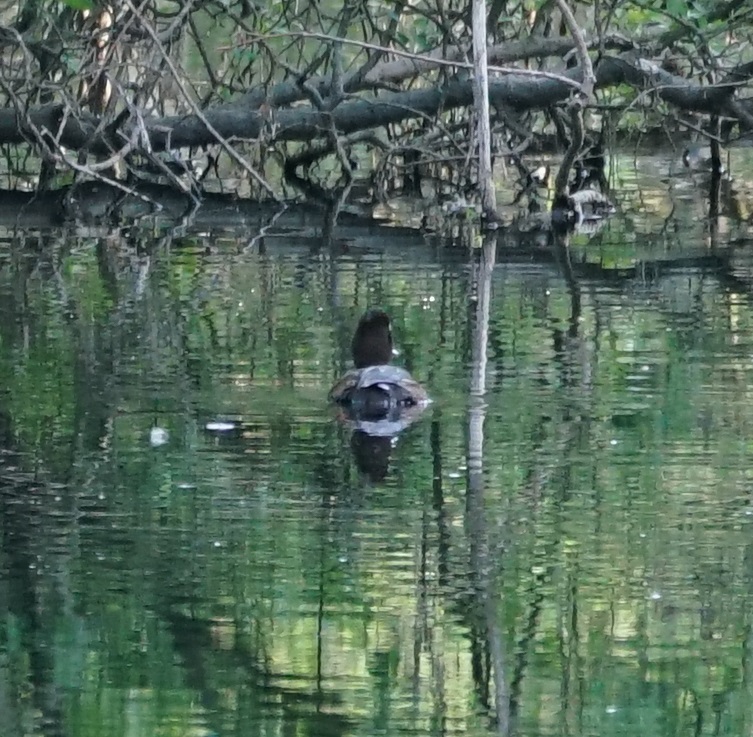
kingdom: Animalia
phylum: Chordata
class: Aves
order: Anseriformes
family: Anatidae
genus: Aythya
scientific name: Aythya fuligula
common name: Tufted duck
